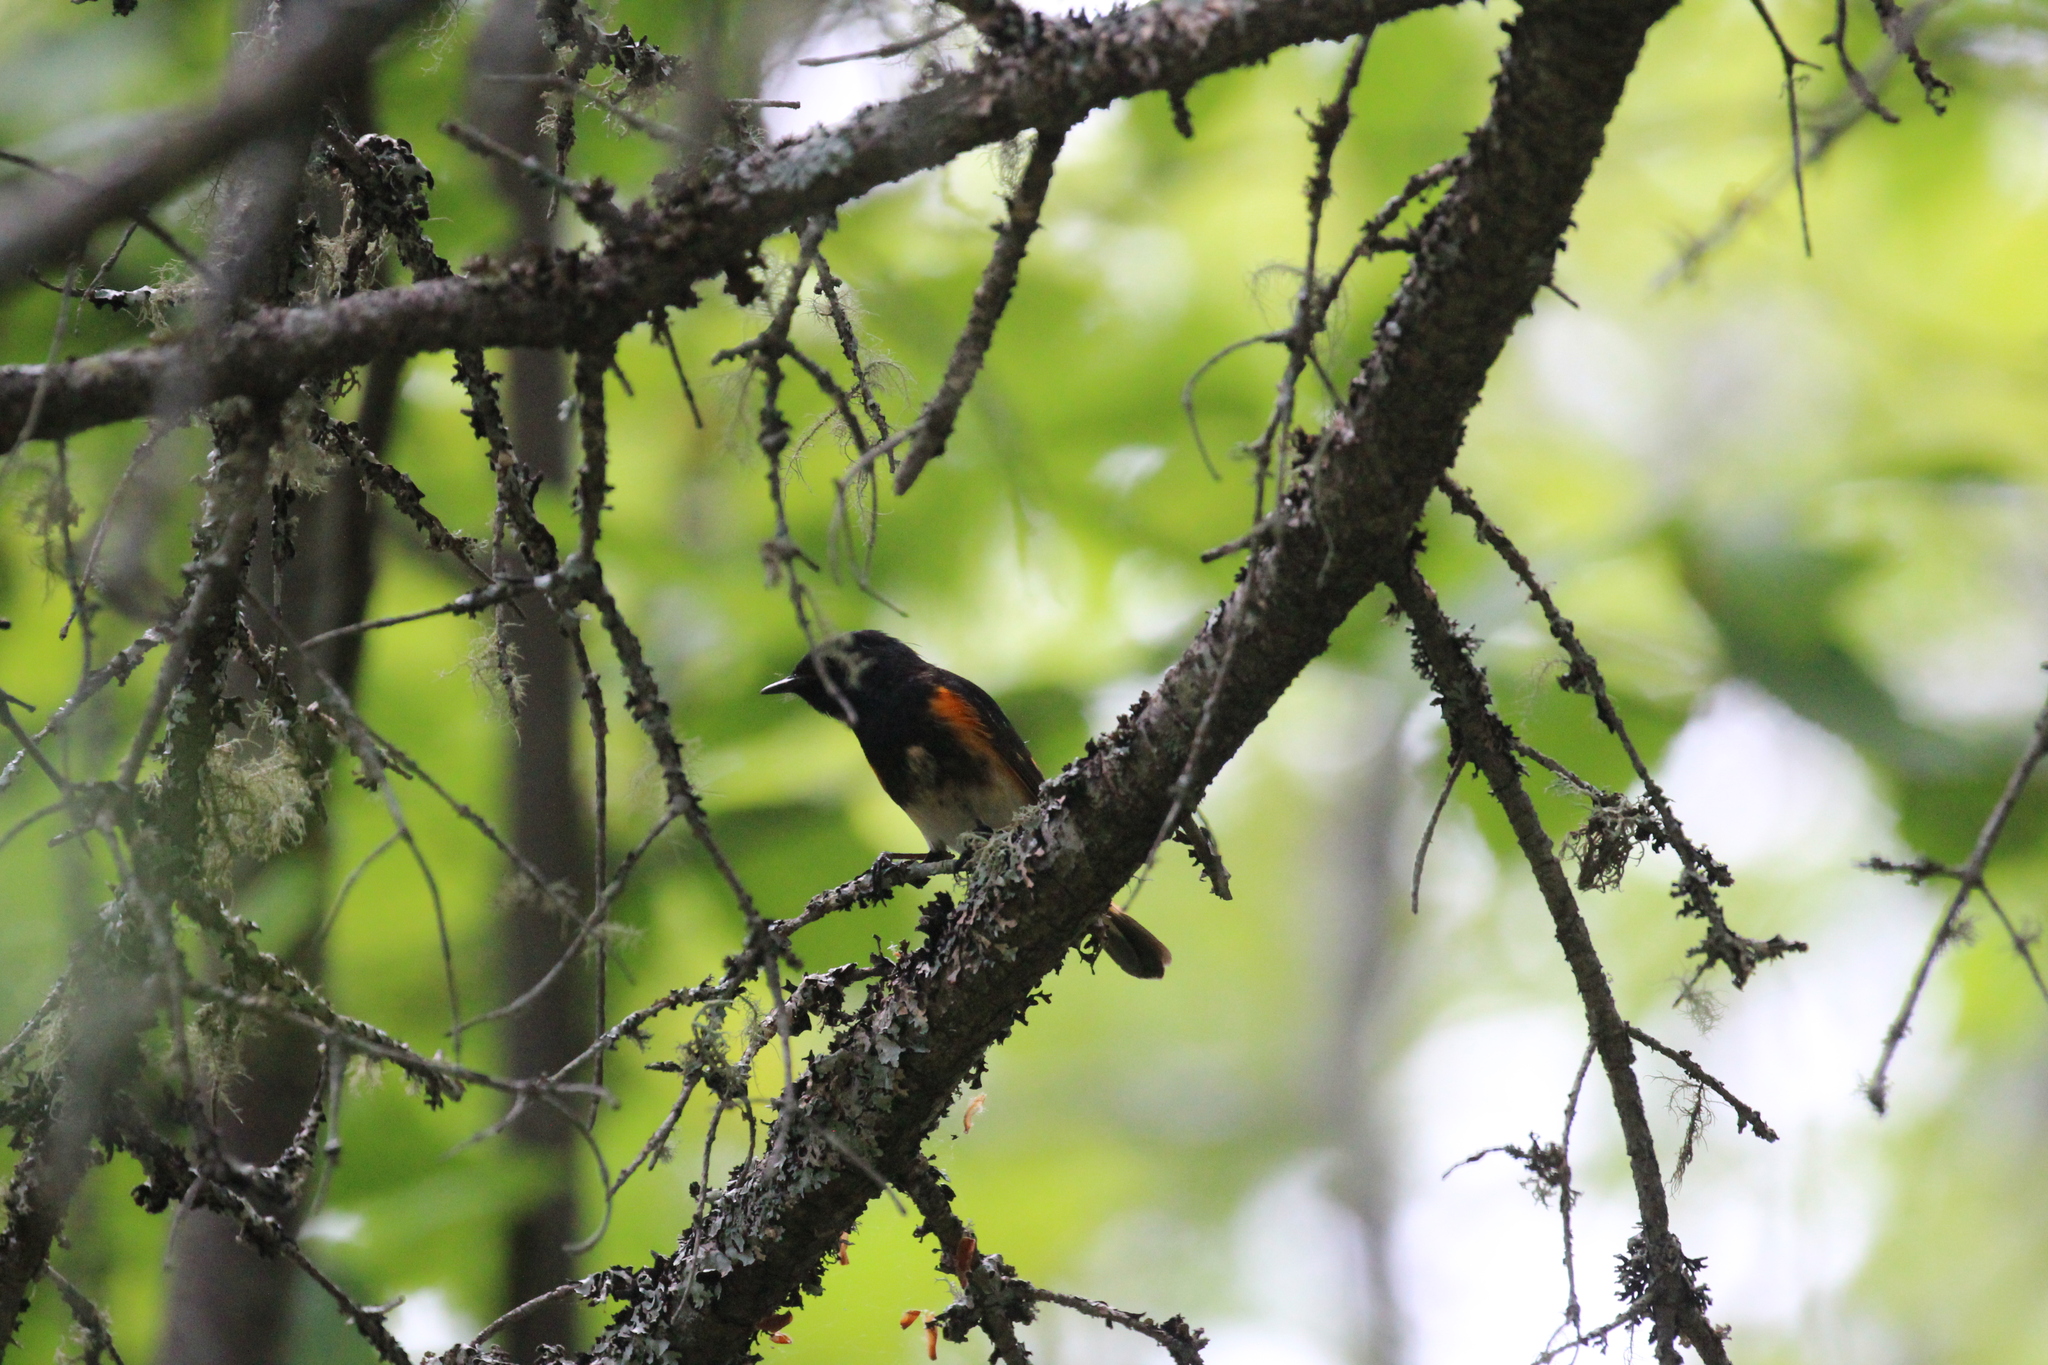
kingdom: Animalia
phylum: Chordata
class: Aves
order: Passeriformes
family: Parulidae
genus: Setophaga
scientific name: Setophaga ruticilla
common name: American redstart
